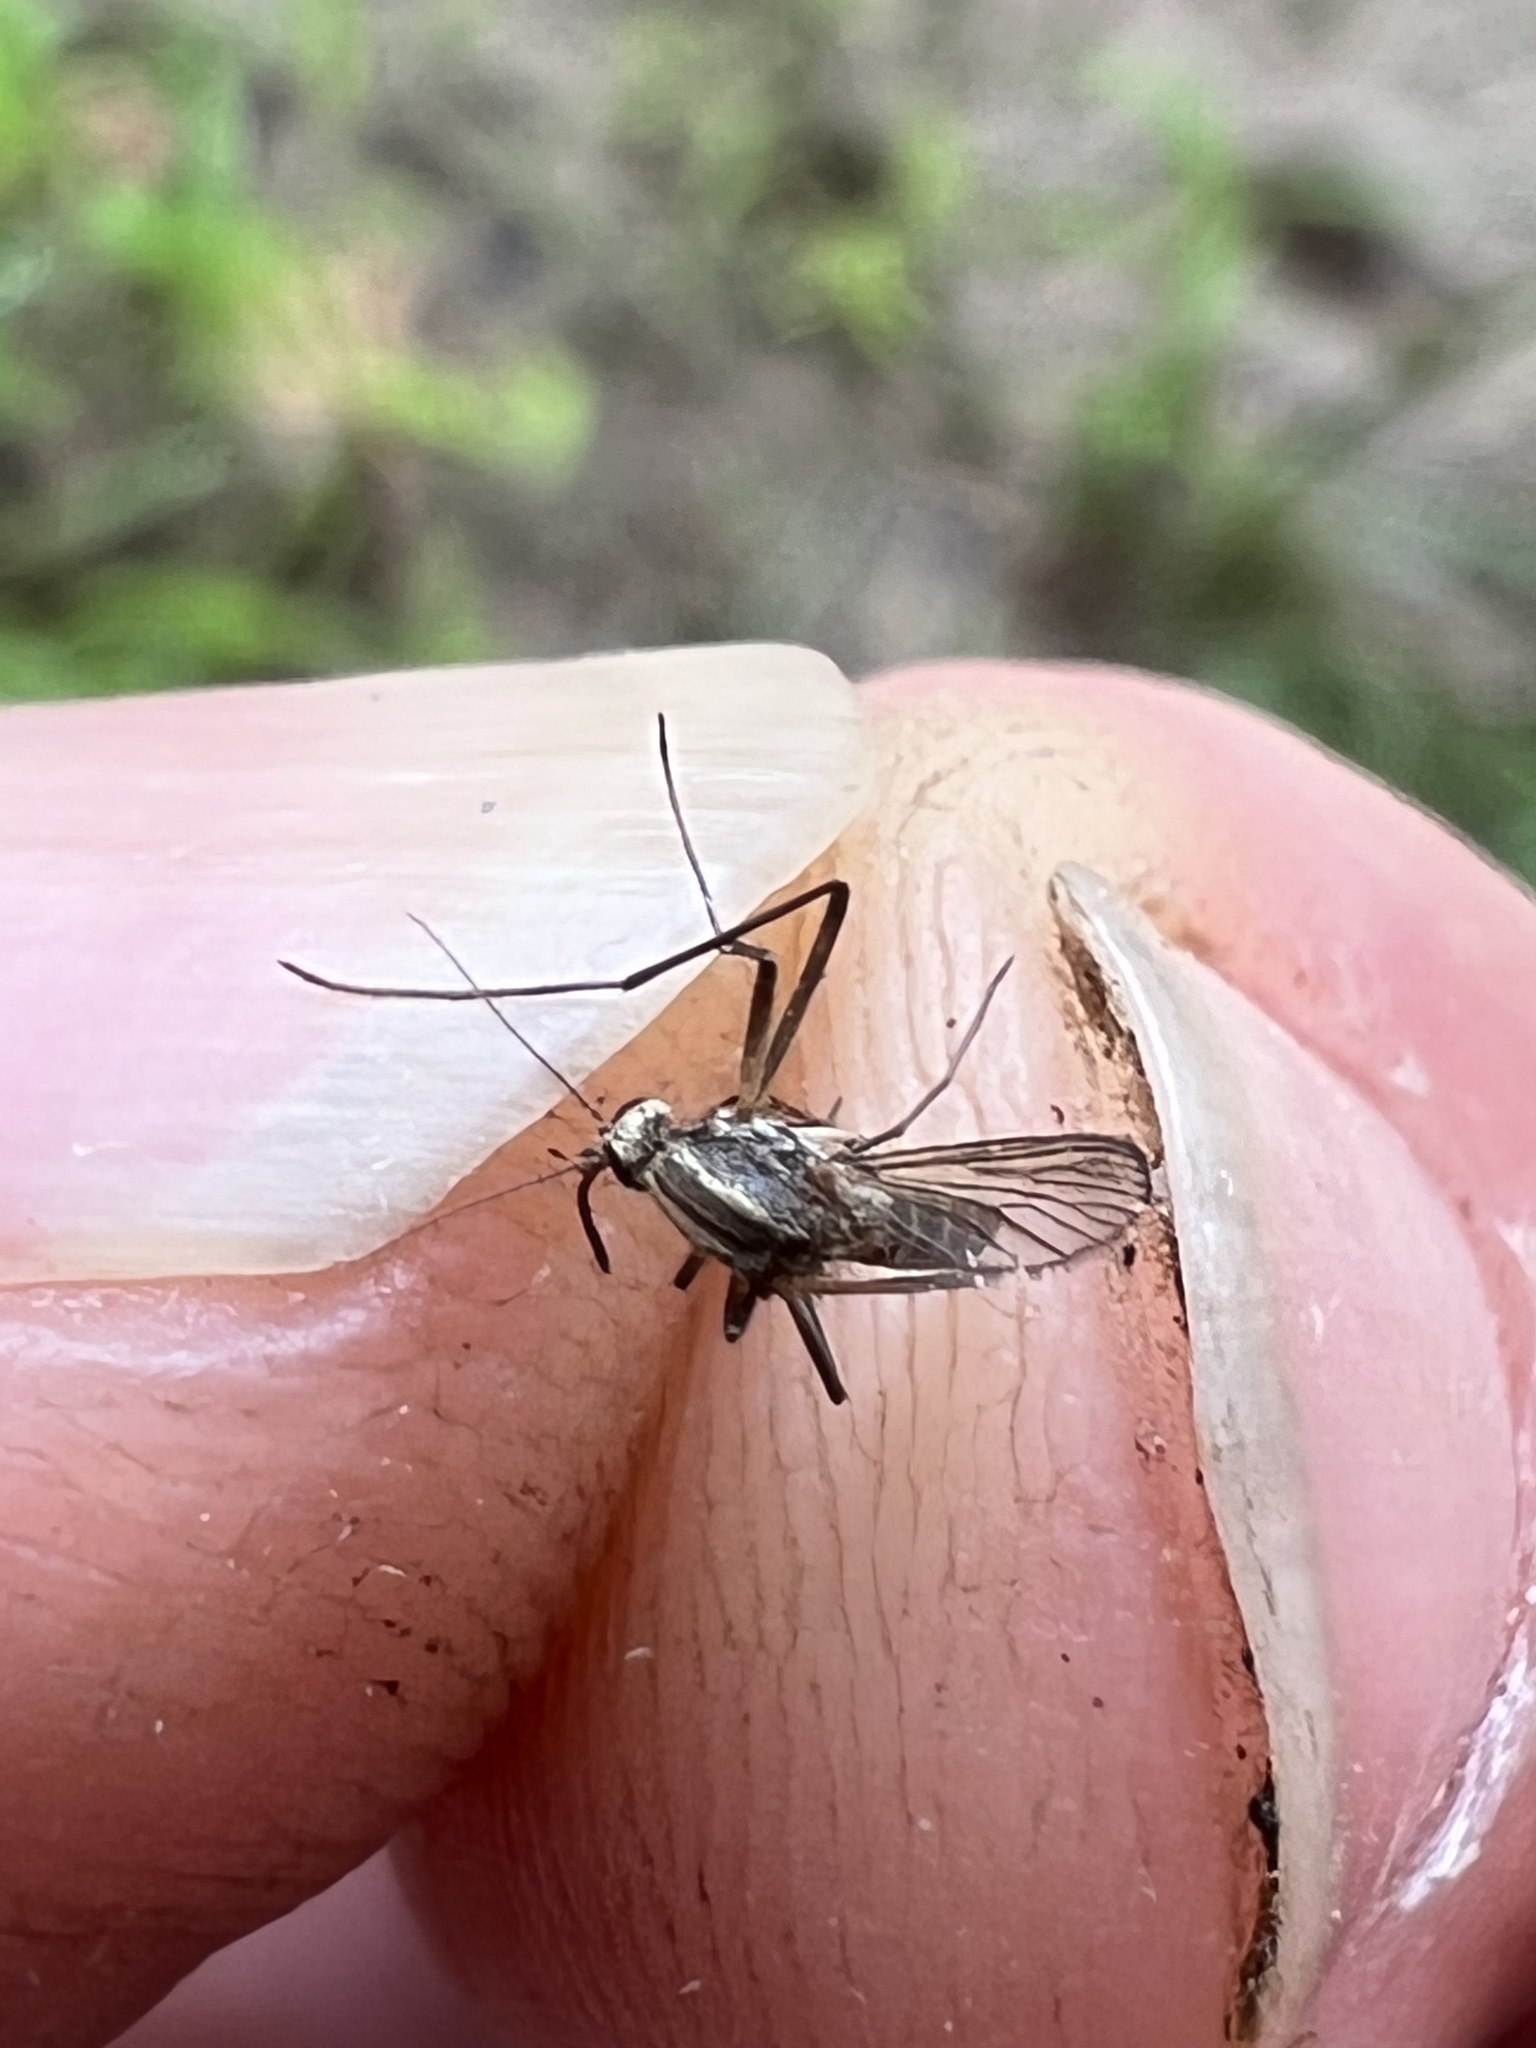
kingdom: Animalia
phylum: Arthropoda
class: Insecta
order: Diptera
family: Culicidae
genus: Aedes
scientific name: Aedes trivittatus
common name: Plains floodwater mosquito
